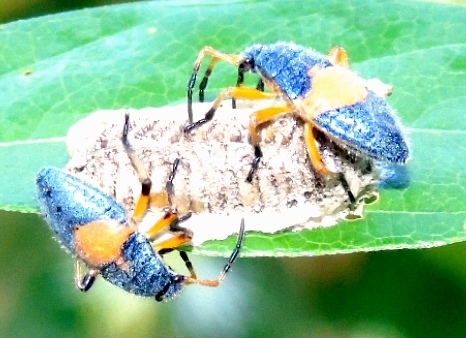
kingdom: Animalia
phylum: Arthropoda
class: Insecta
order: Hemiptera
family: Largidae
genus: Largus
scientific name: Largus
